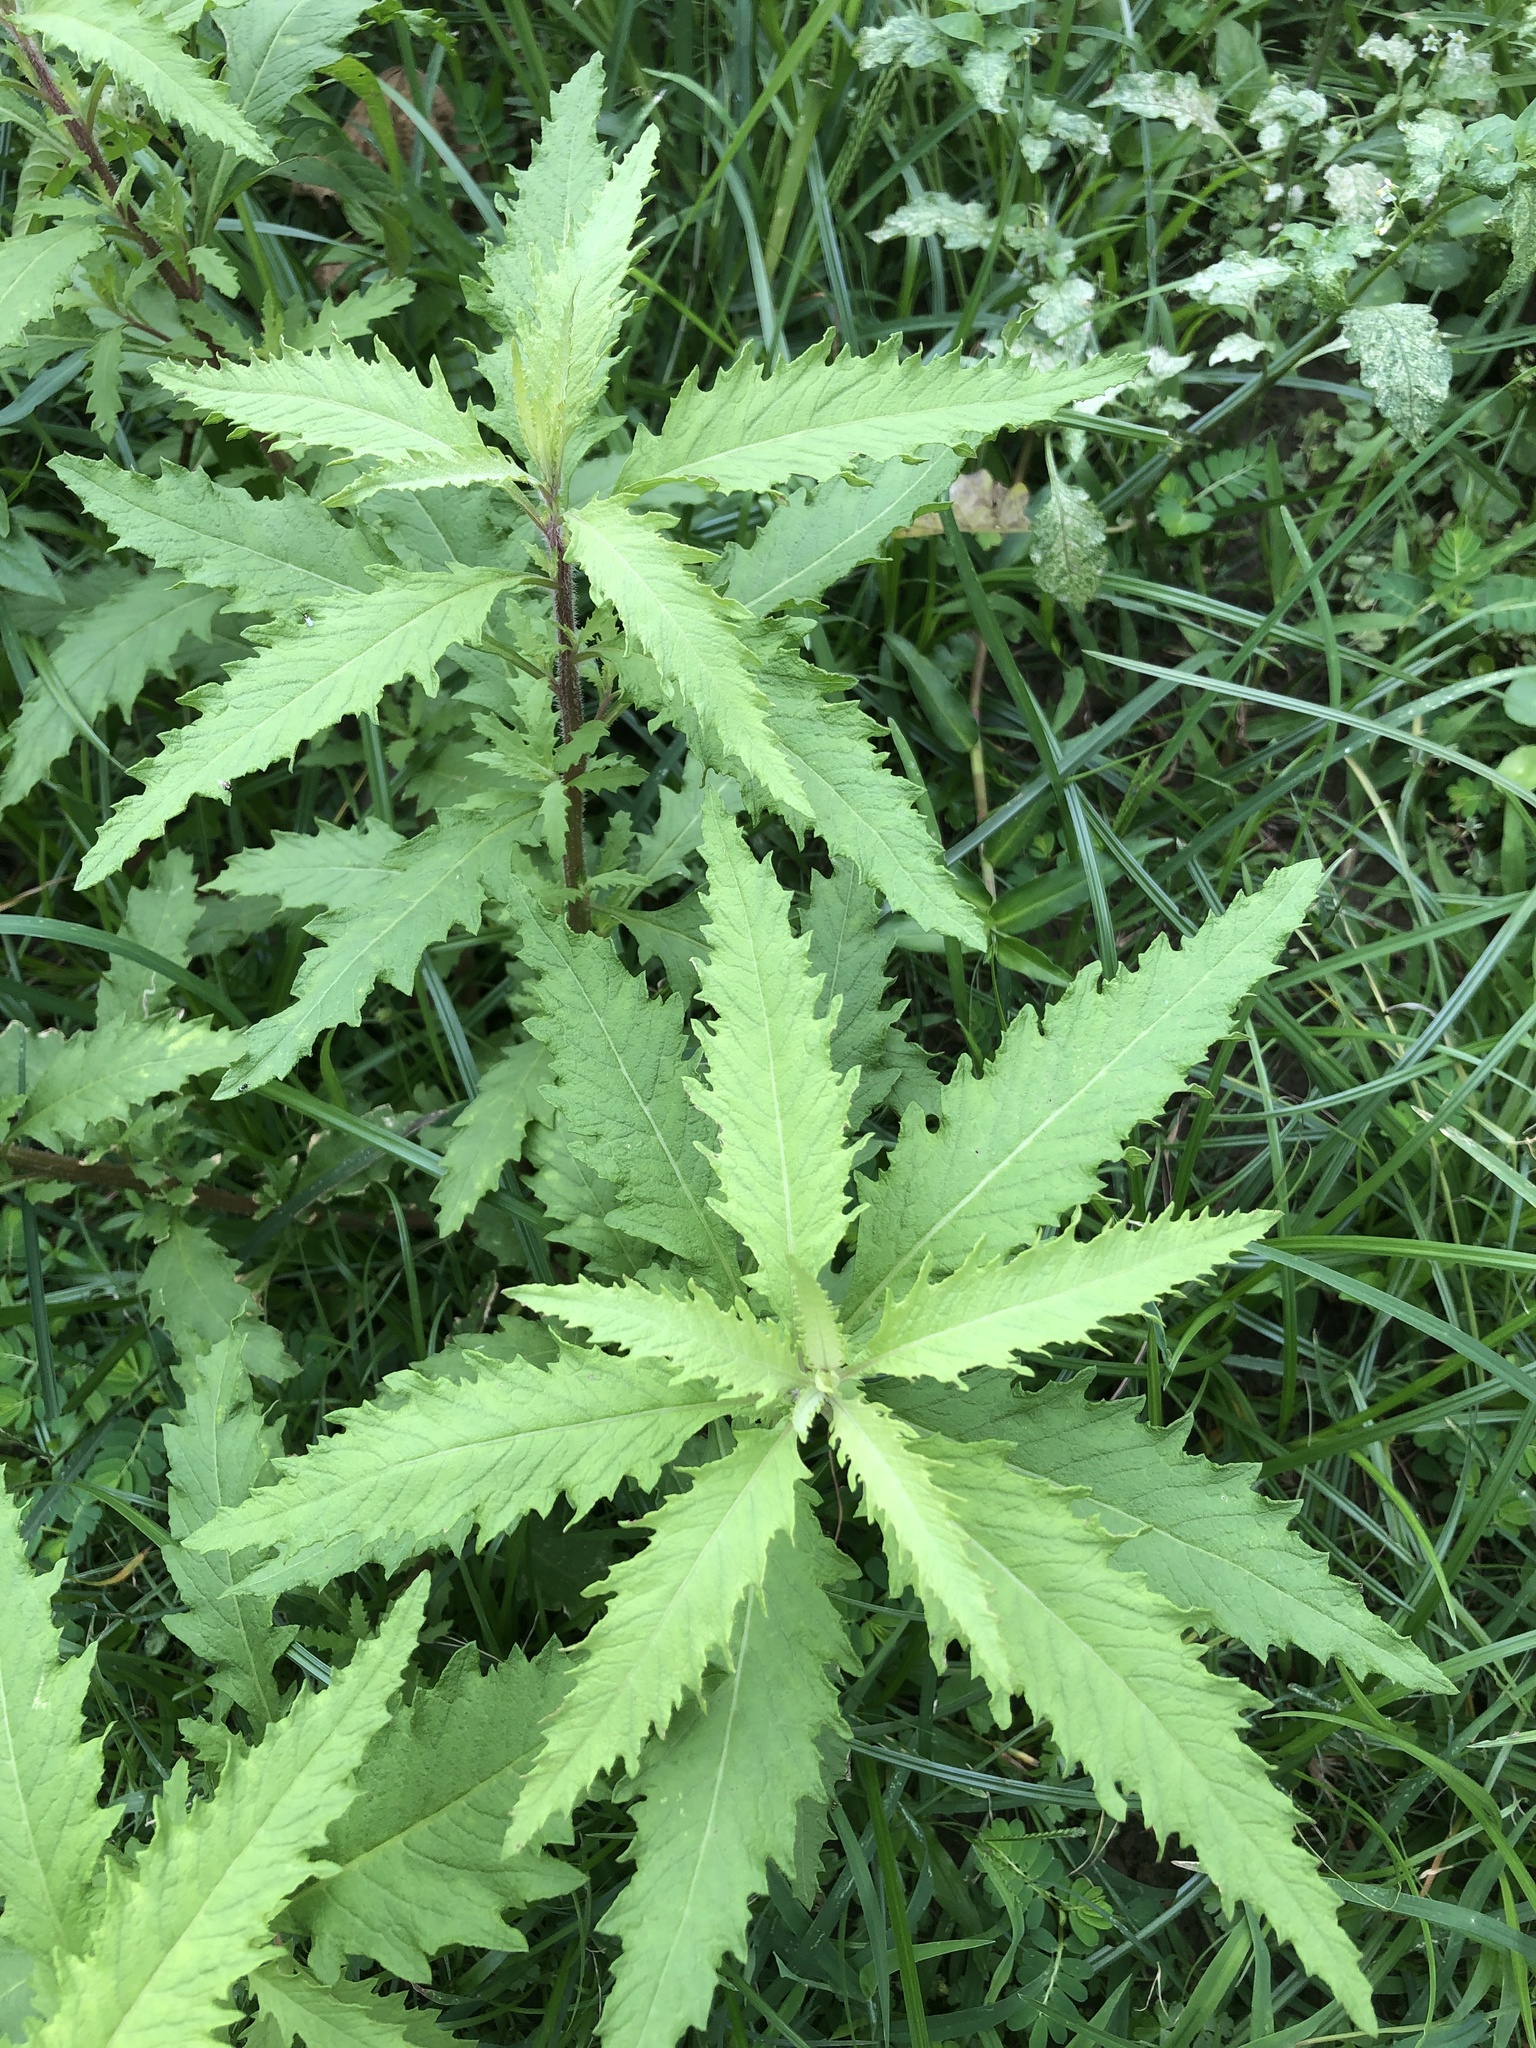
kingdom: Plantae
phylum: Tracheophyta
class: Magnoliopsida
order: Caryophyllales
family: Amaranthaceae
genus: Dysphania
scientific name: Dysphania ambrosioides
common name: Wormseed
